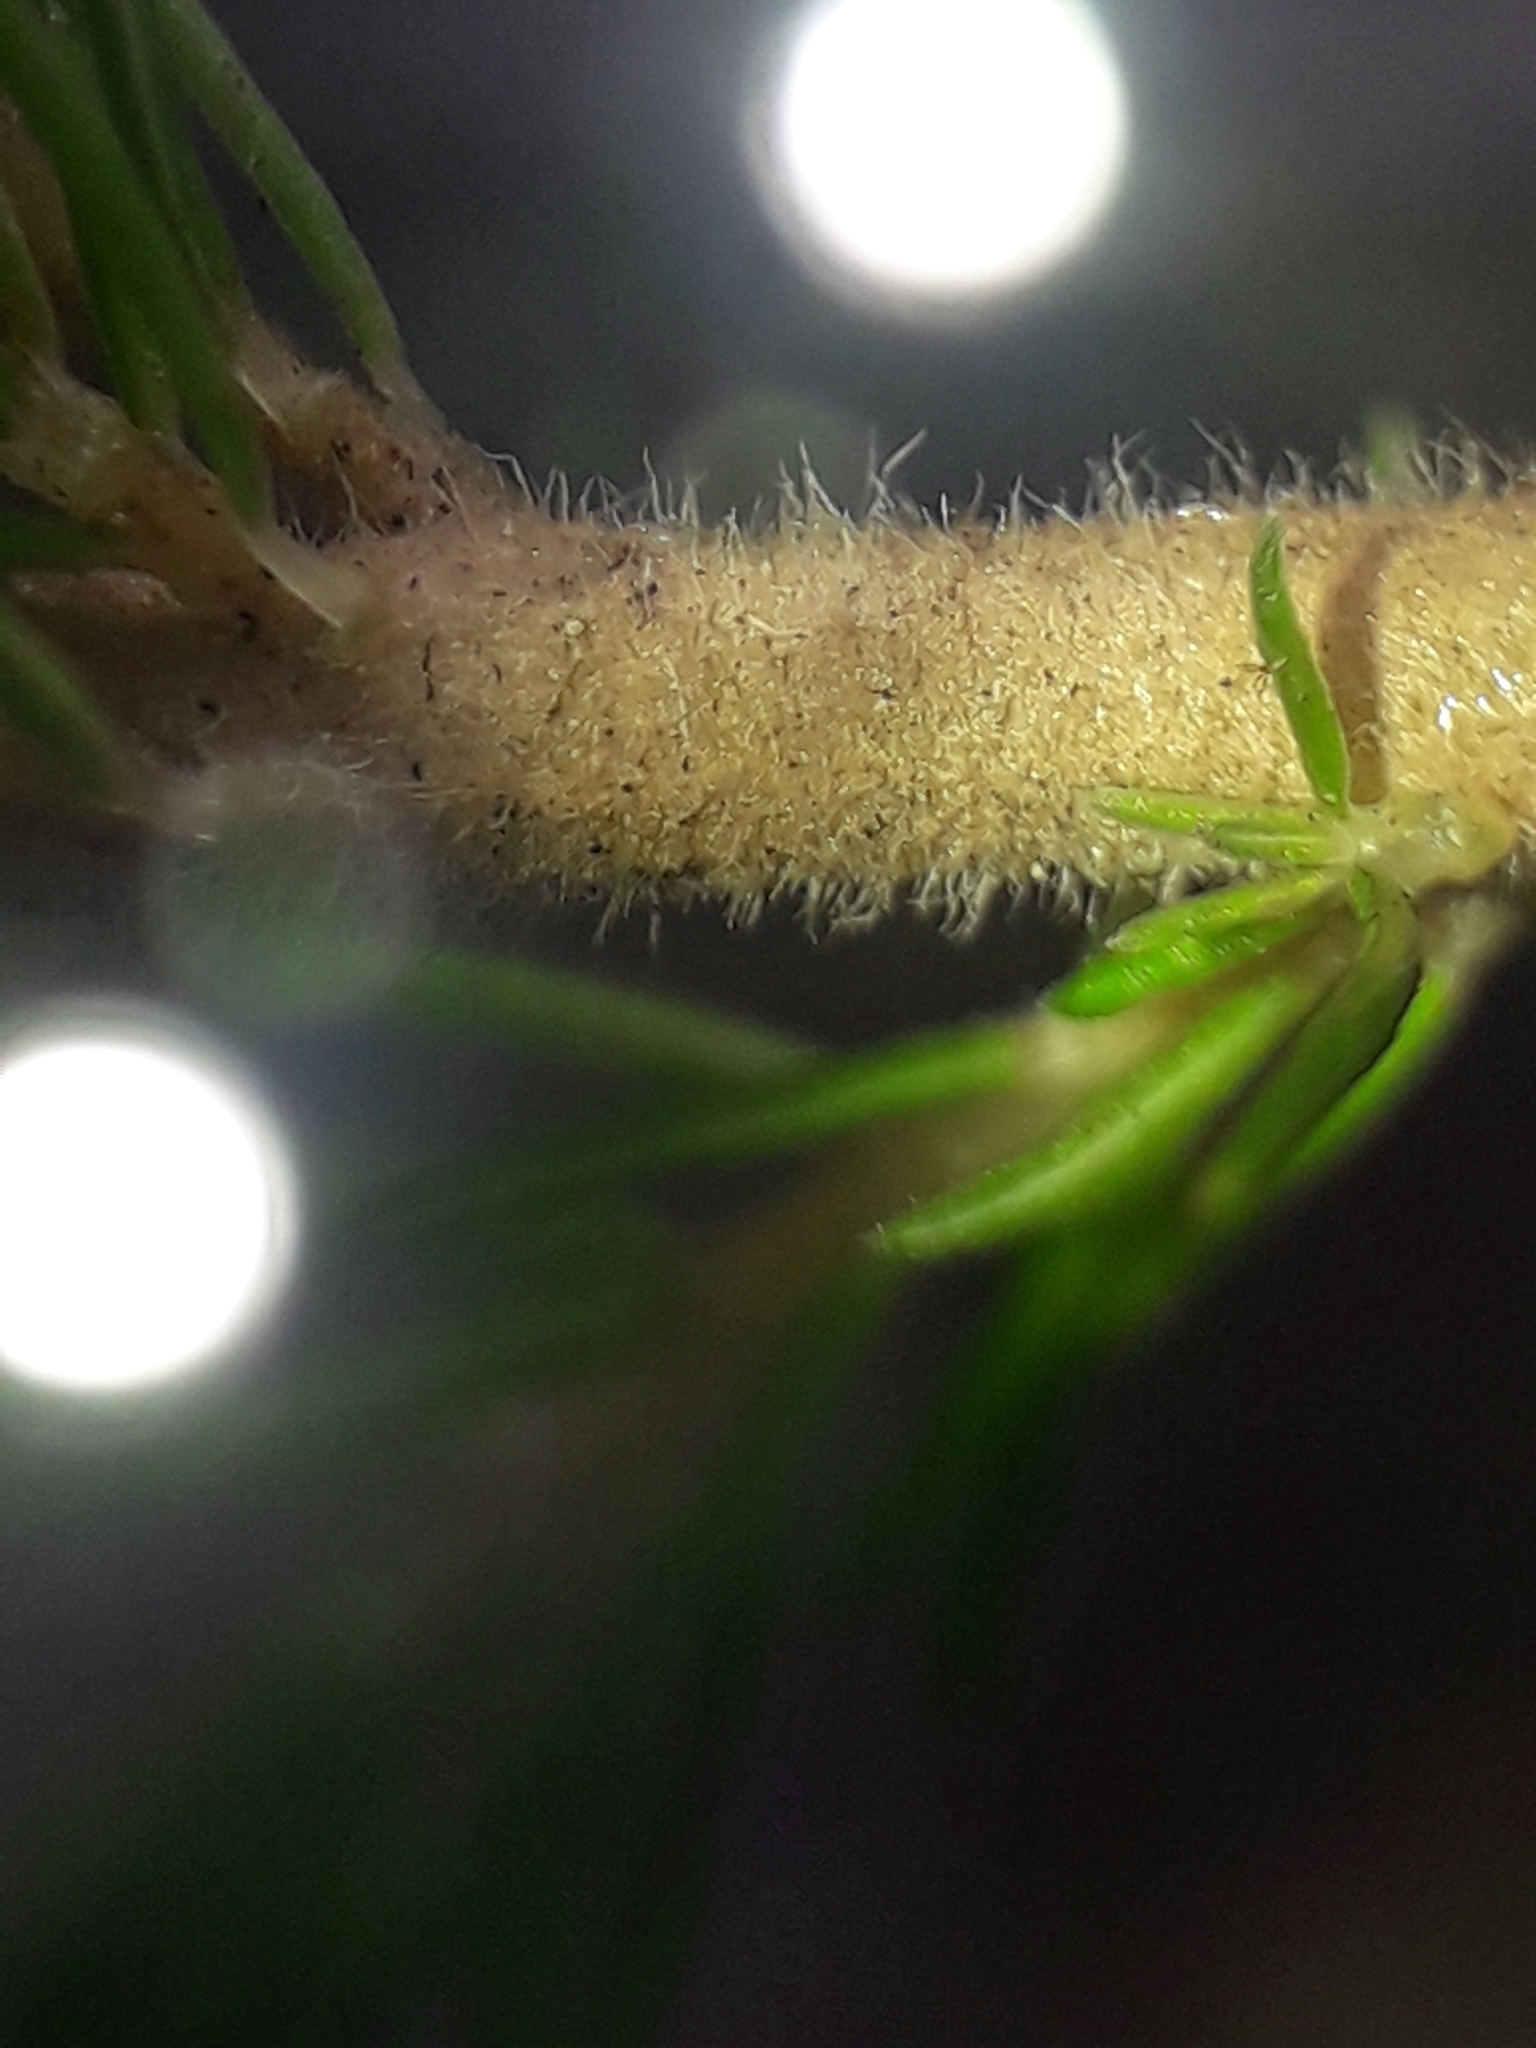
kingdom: Plantae
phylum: Tracheophyta
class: Magnoliopsida
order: Ericales
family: Ericaceae
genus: Erica
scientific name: Erica lusitanica
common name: Spanish heath
